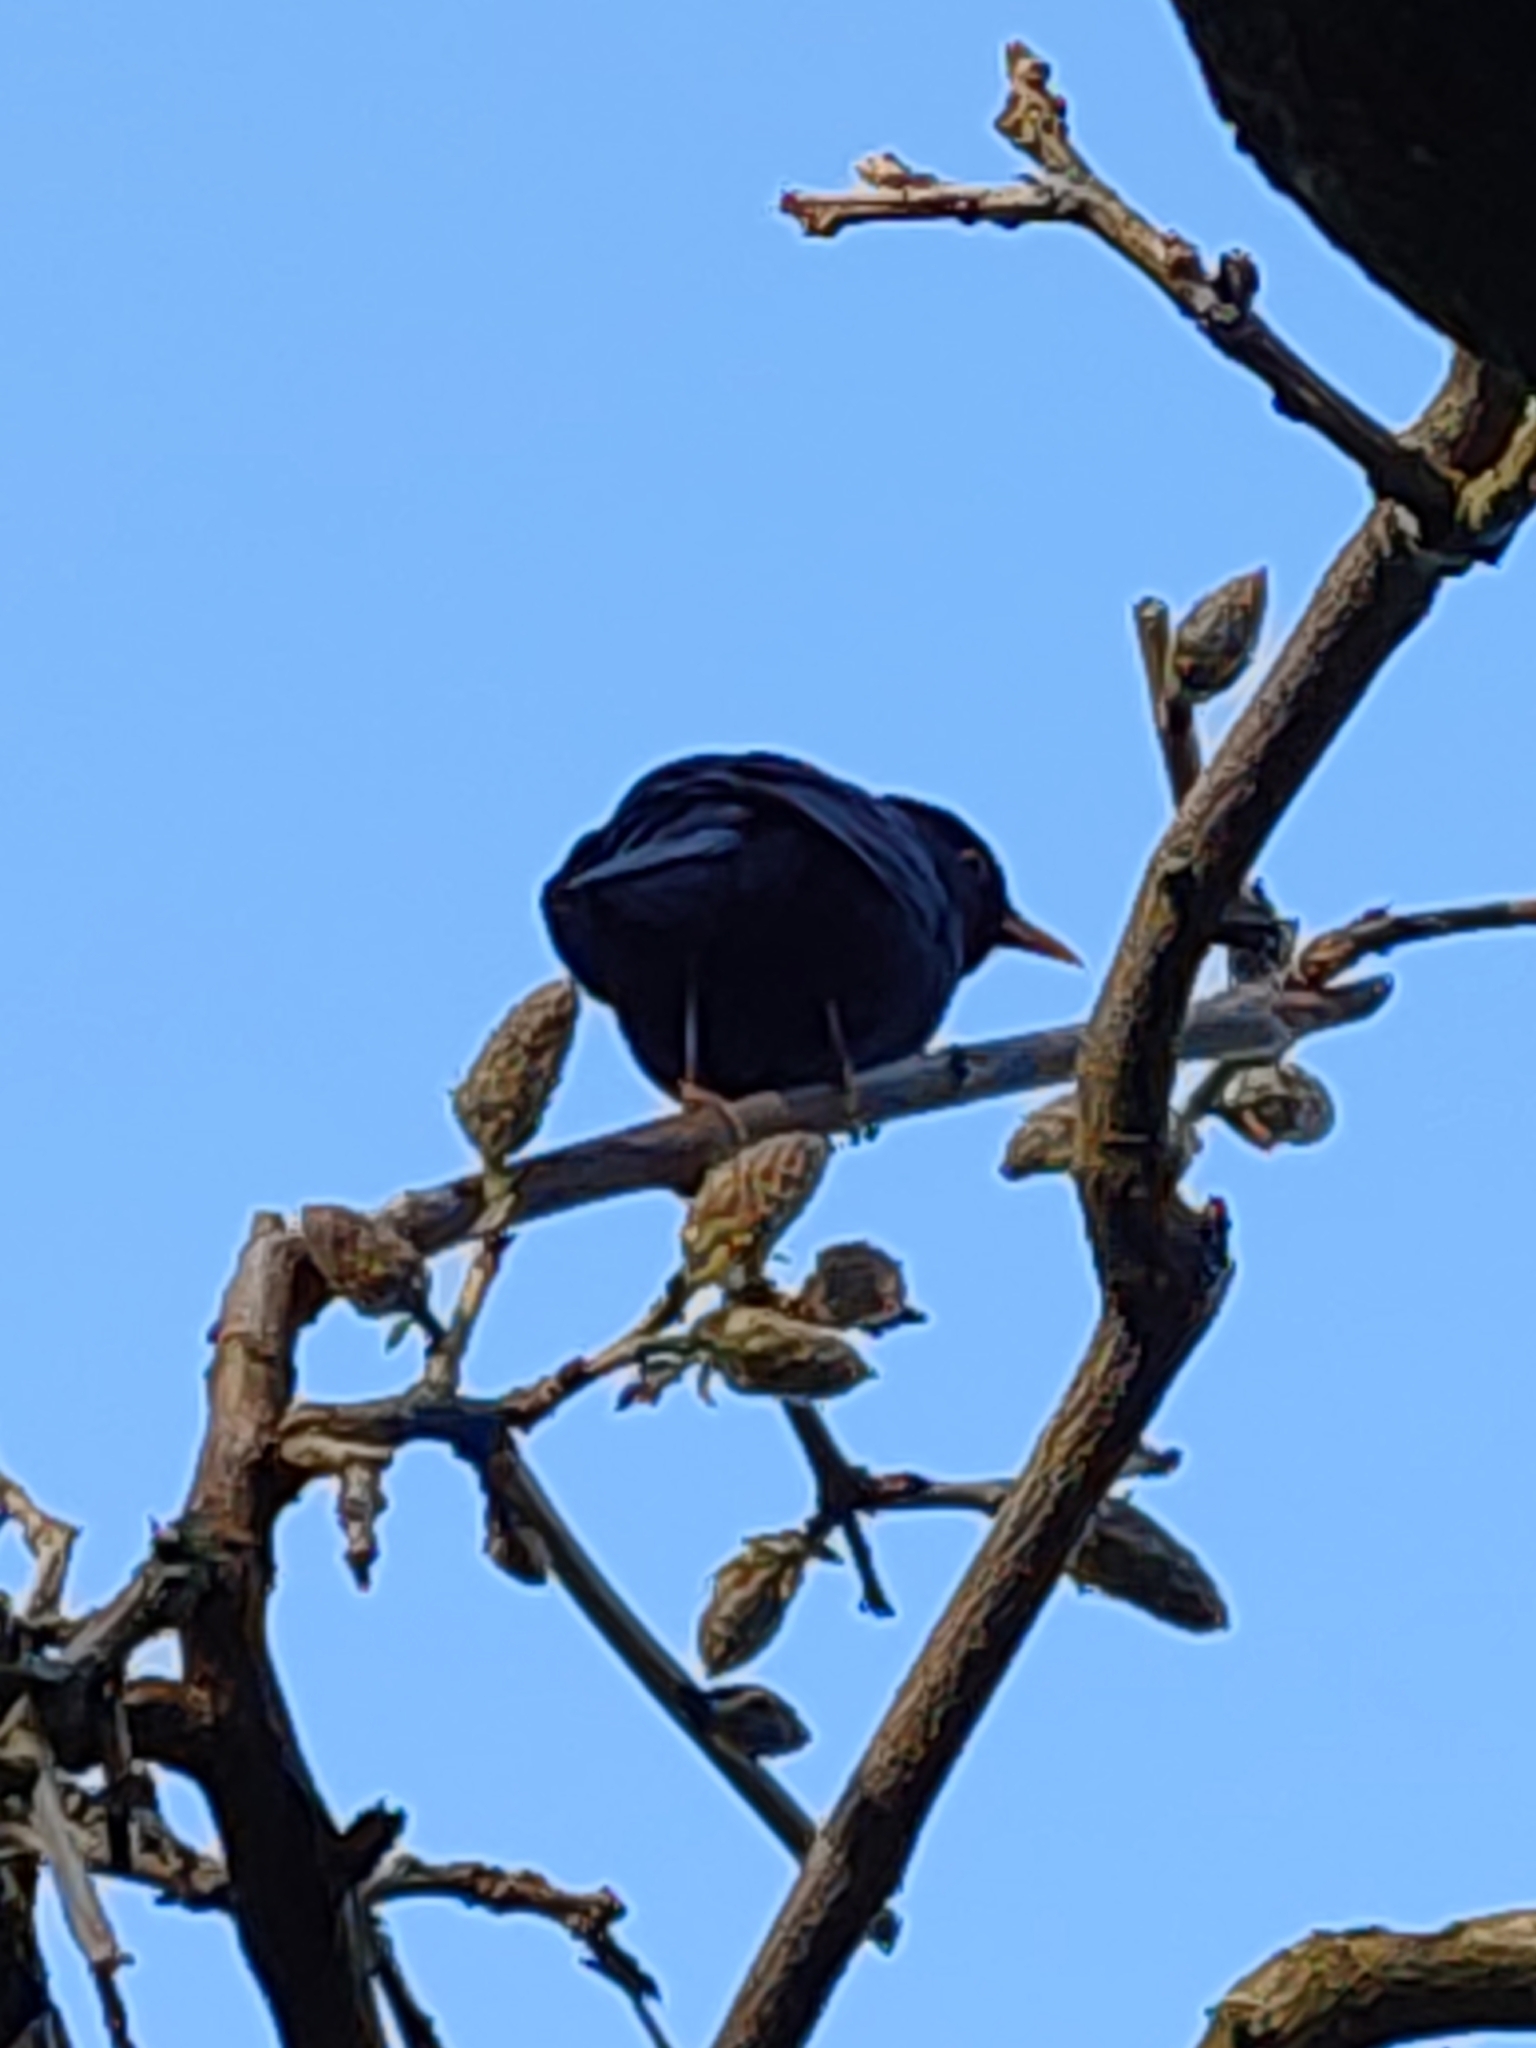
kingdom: Animalia
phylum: Chordata
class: Aves
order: Passeriformes
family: Turdidae
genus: Turdus
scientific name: Turdus merula
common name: Common blackbird
